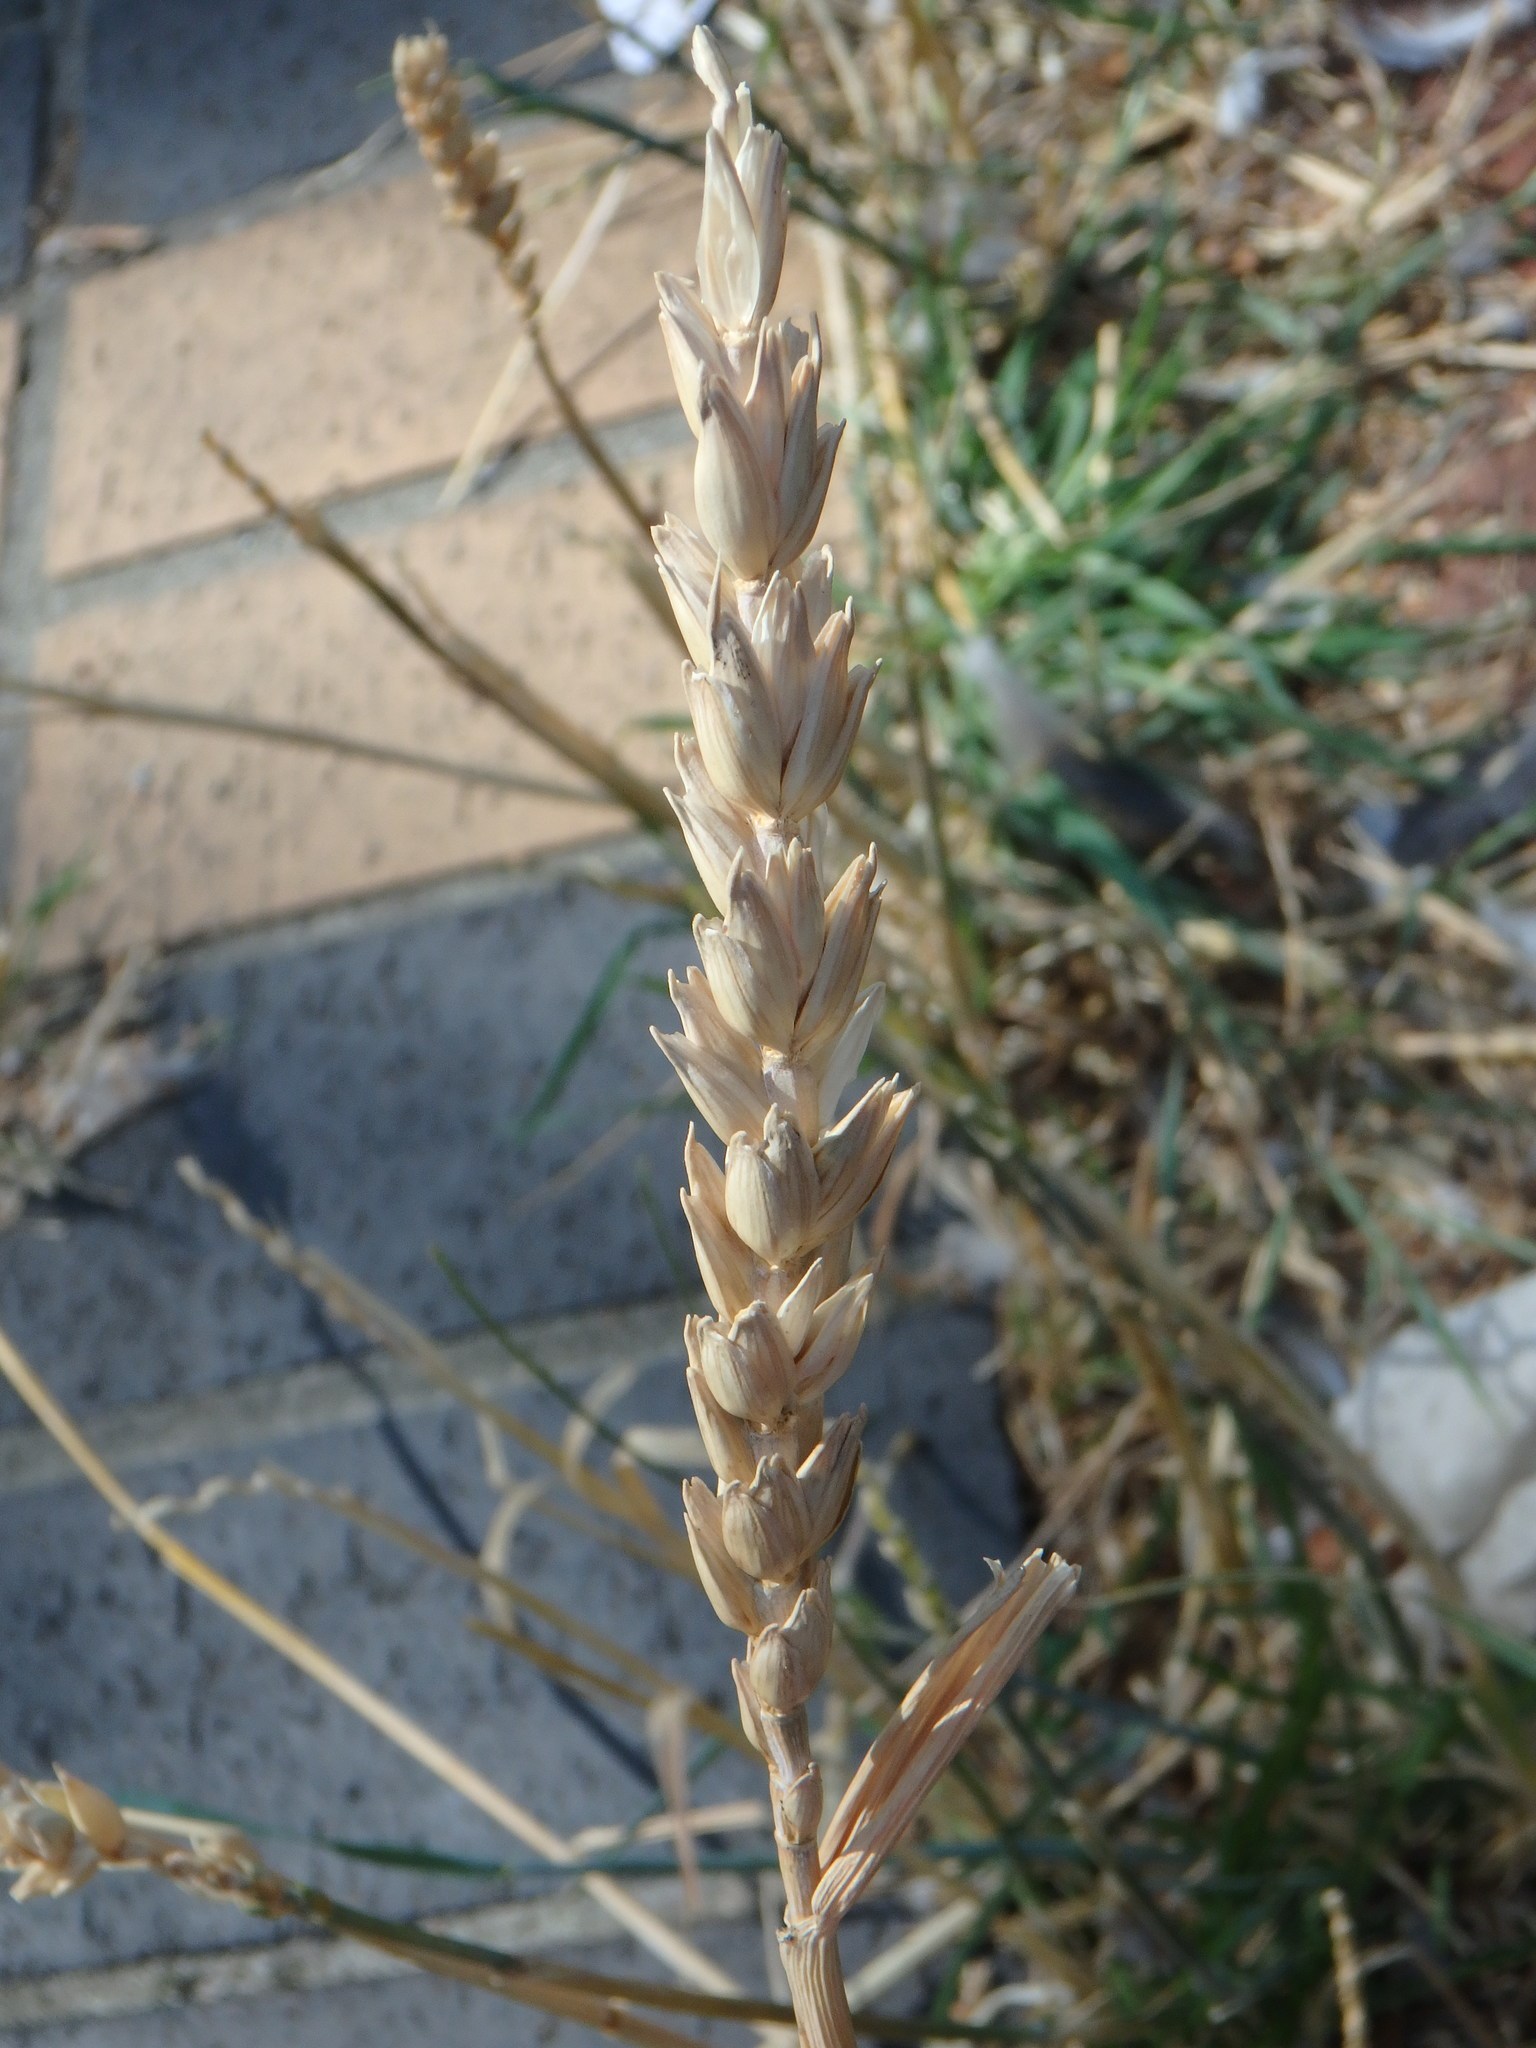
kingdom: Plantae
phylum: Tracheophyta
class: Liliopsida
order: Poales
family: Poaceae
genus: Triticum
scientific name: Triticum aestivum
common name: Common wheat
